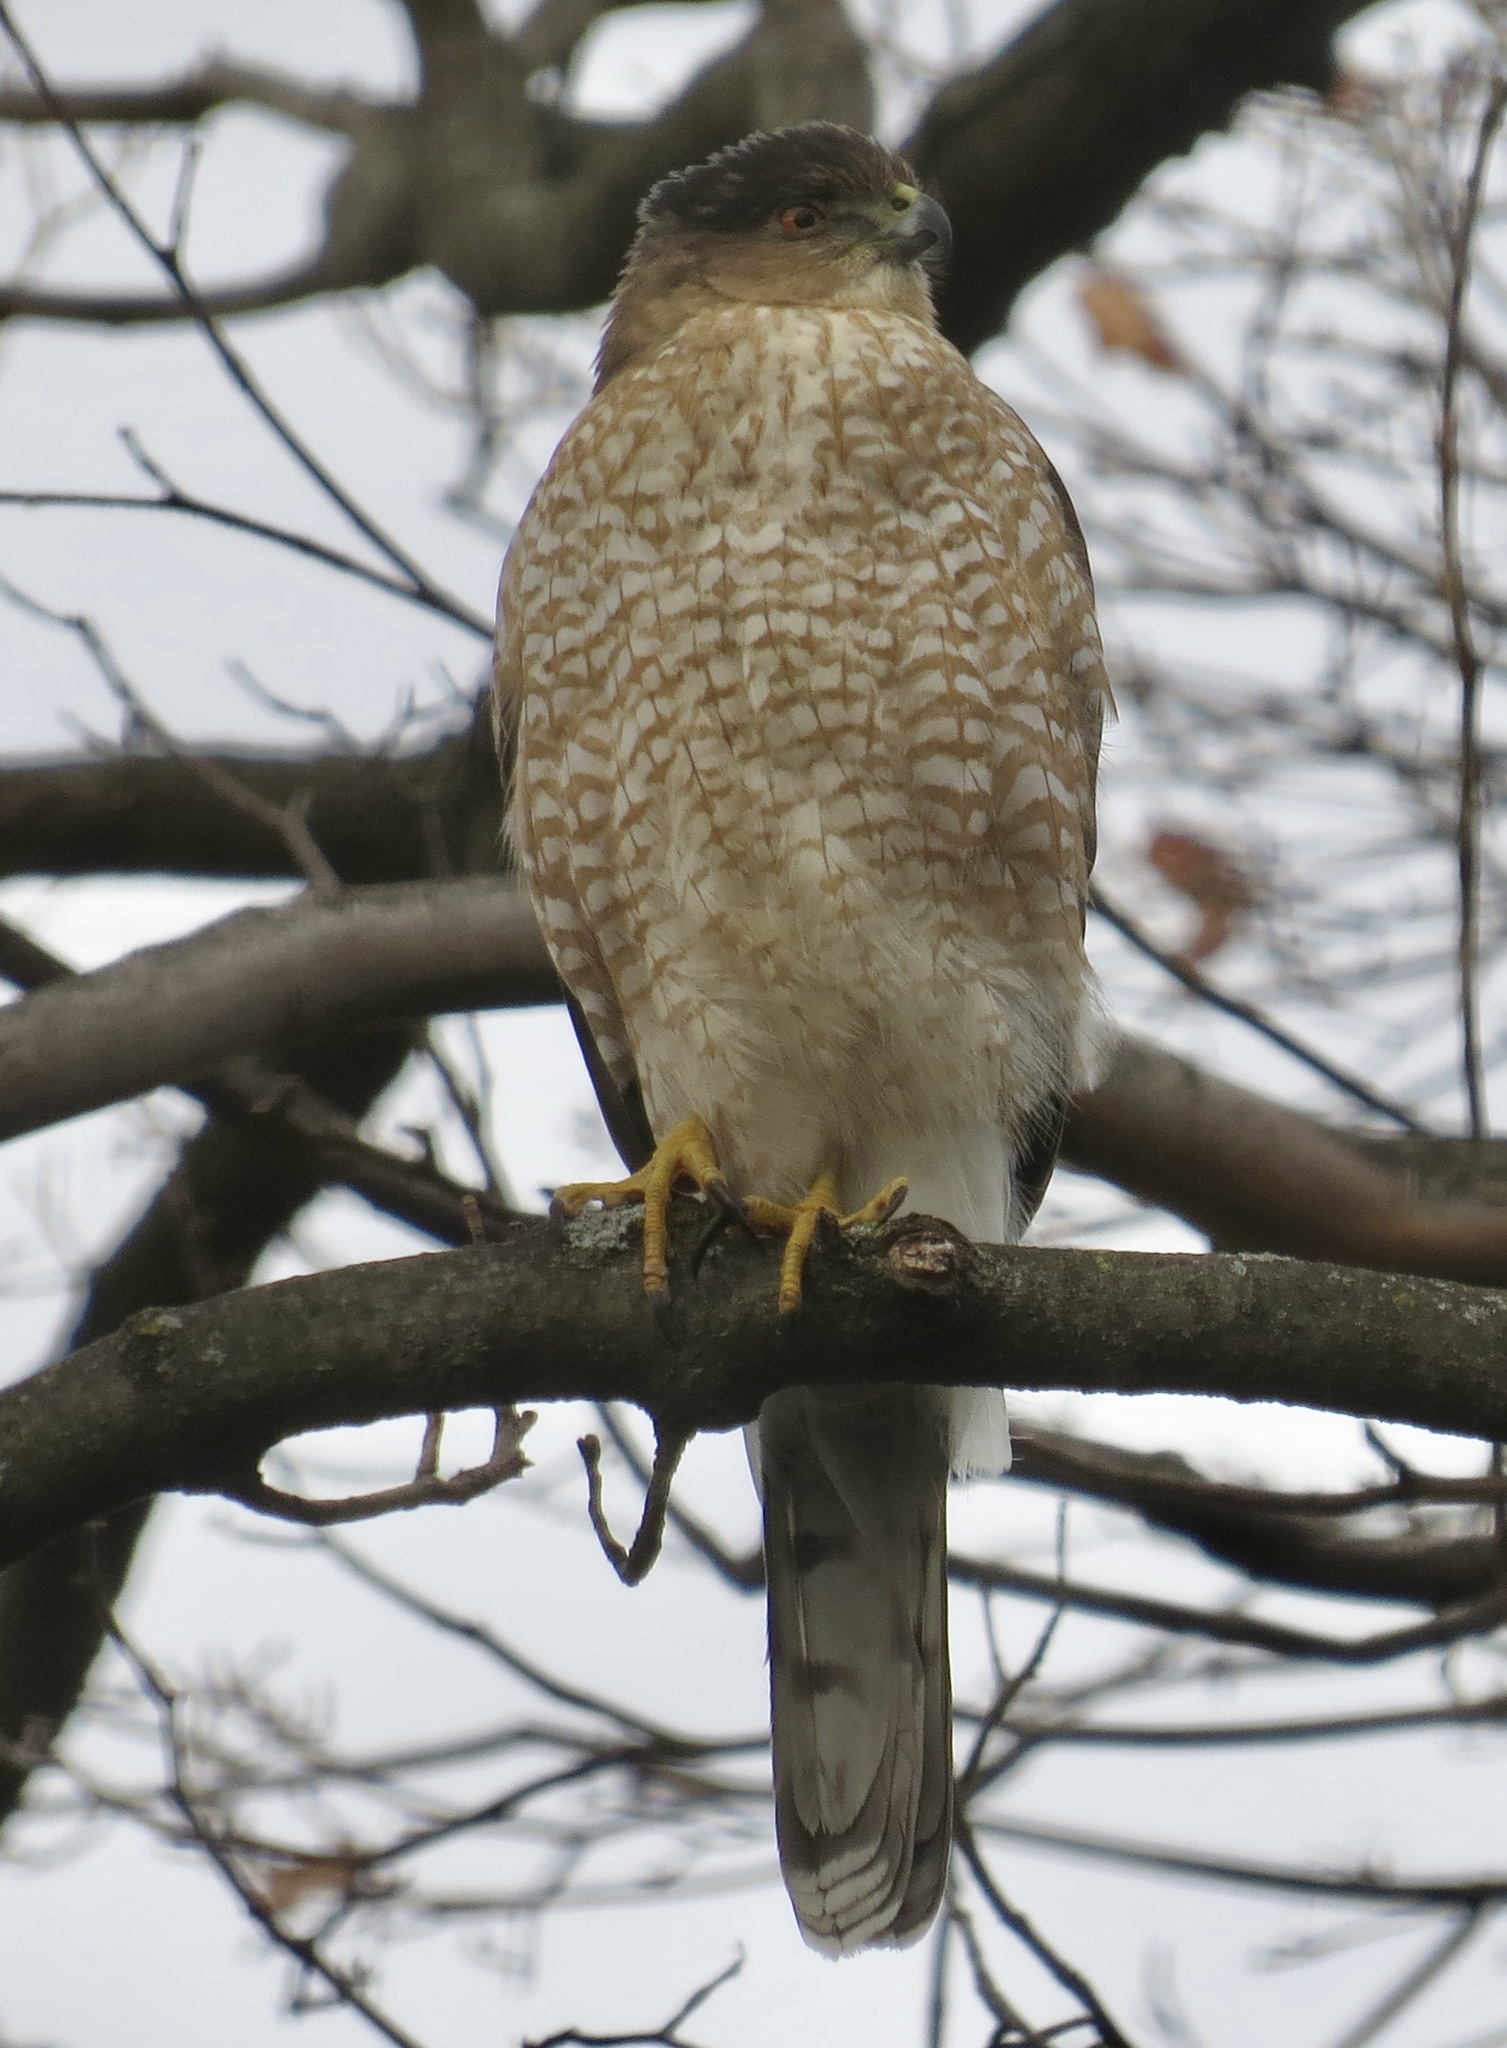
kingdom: Animalia
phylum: Chordata
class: Aves
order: Accipitriformes
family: Accipitridae
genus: Accipiter
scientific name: Accipiter cooperii
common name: Cooper's hawk
